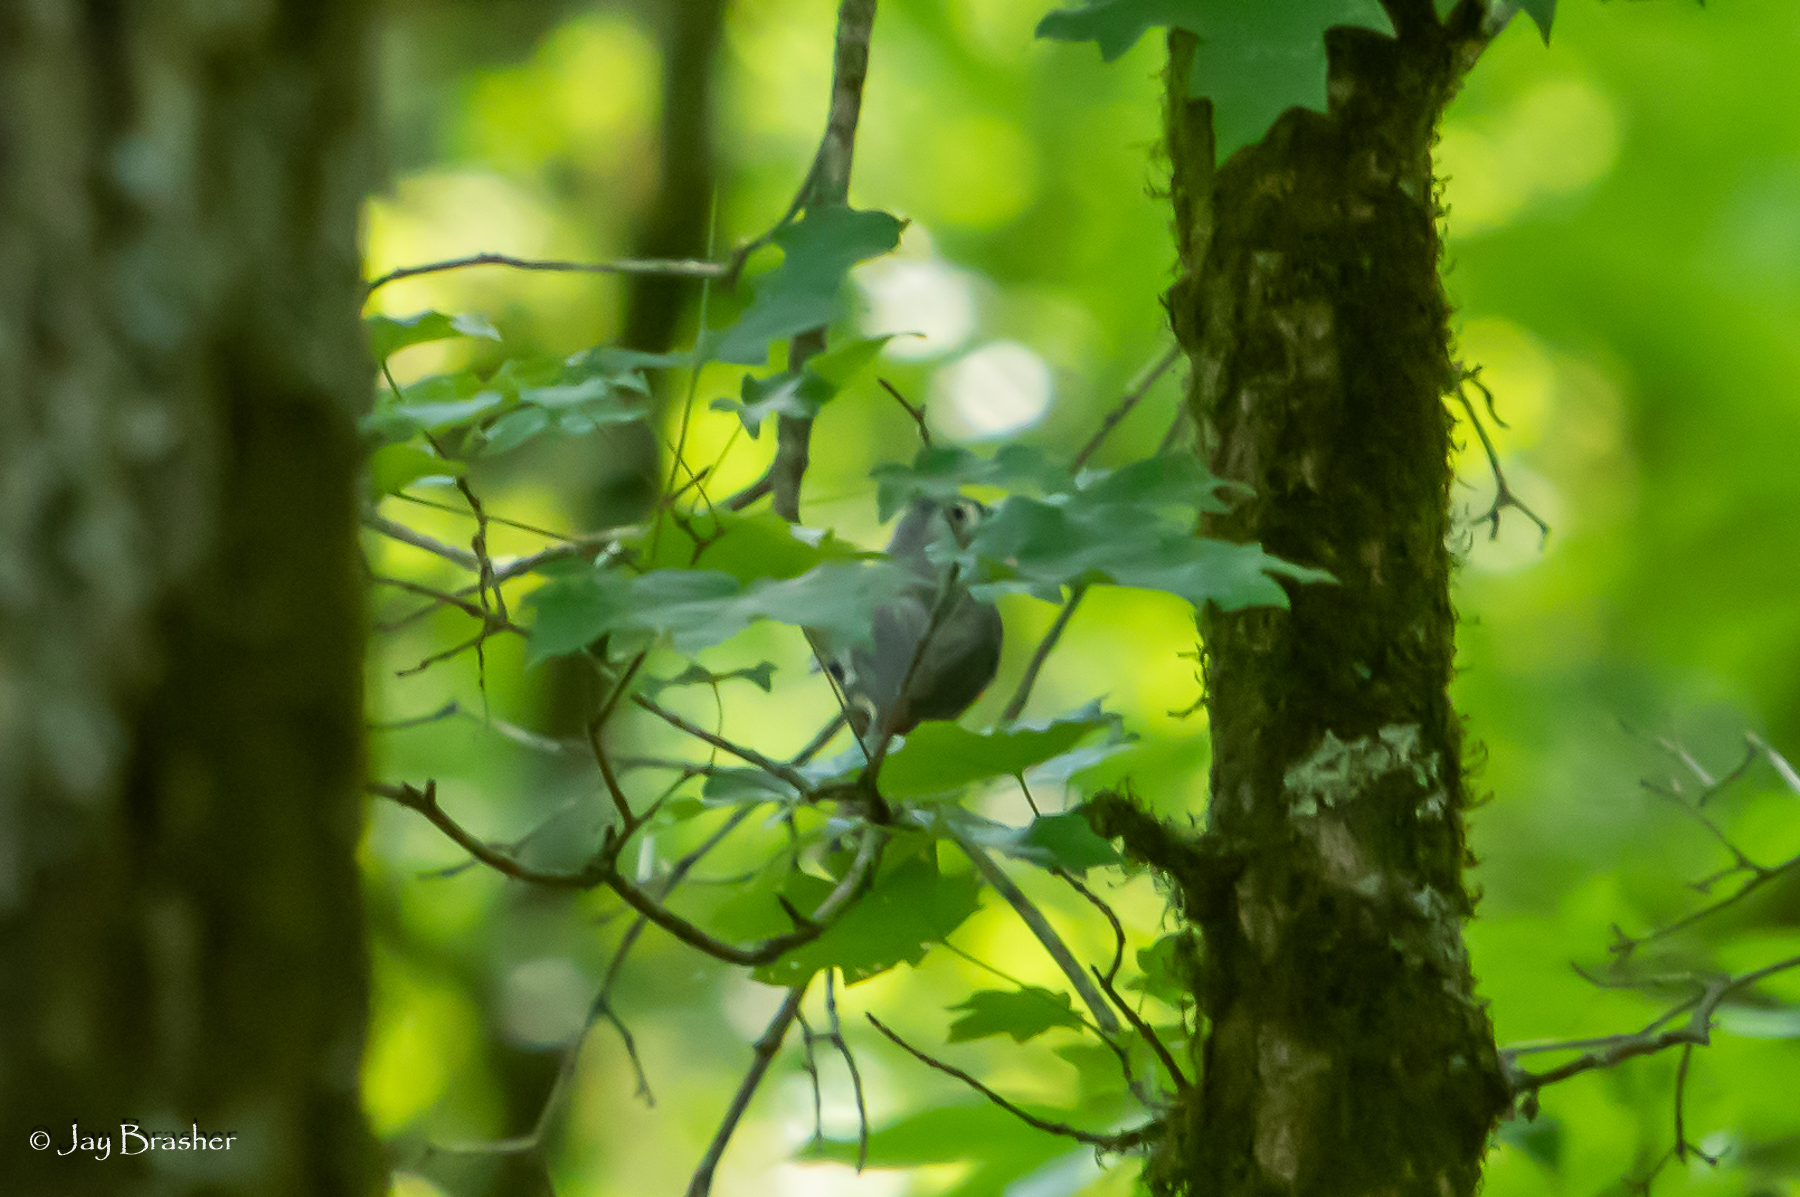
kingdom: Animalia
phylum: Chordata
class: Aves
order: Passeriformes
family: Paridae
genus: Baeolophus
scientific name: Baeolophus bicolor
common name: Tufted titmouse
